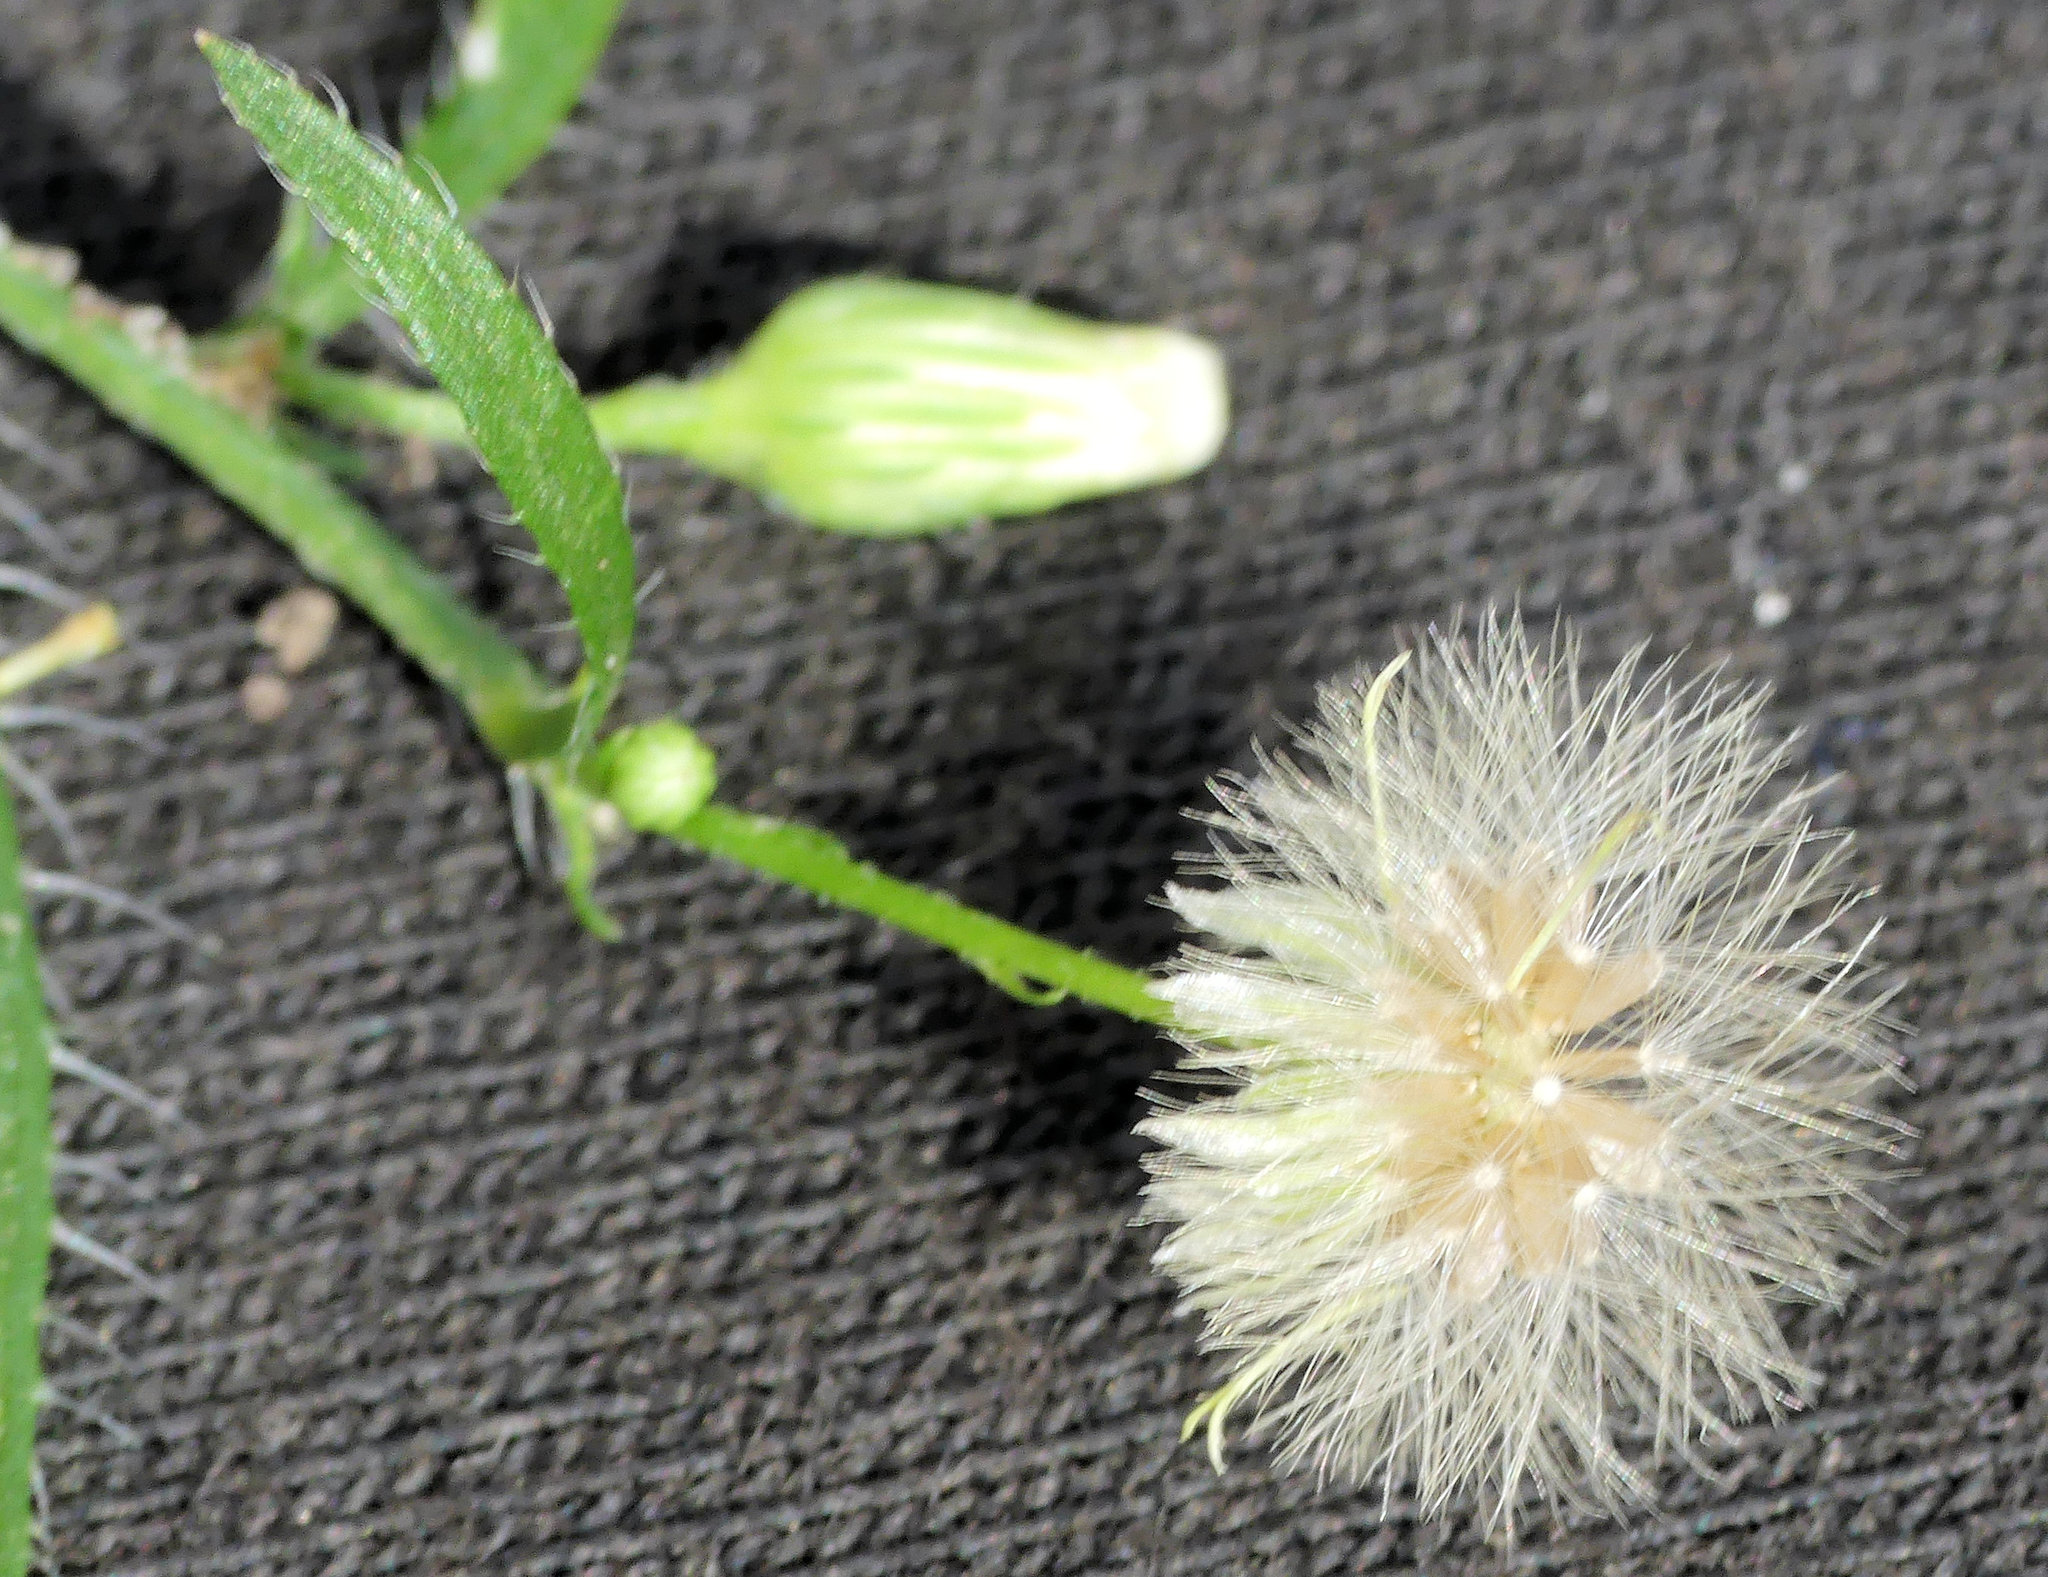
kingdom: Plantae
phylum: Tracheophyta
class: Magnoliopsida
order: Asterales
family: Asteraceae
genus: Erigeron
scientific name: Erigeron canadensis
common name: Canadian fleabane
